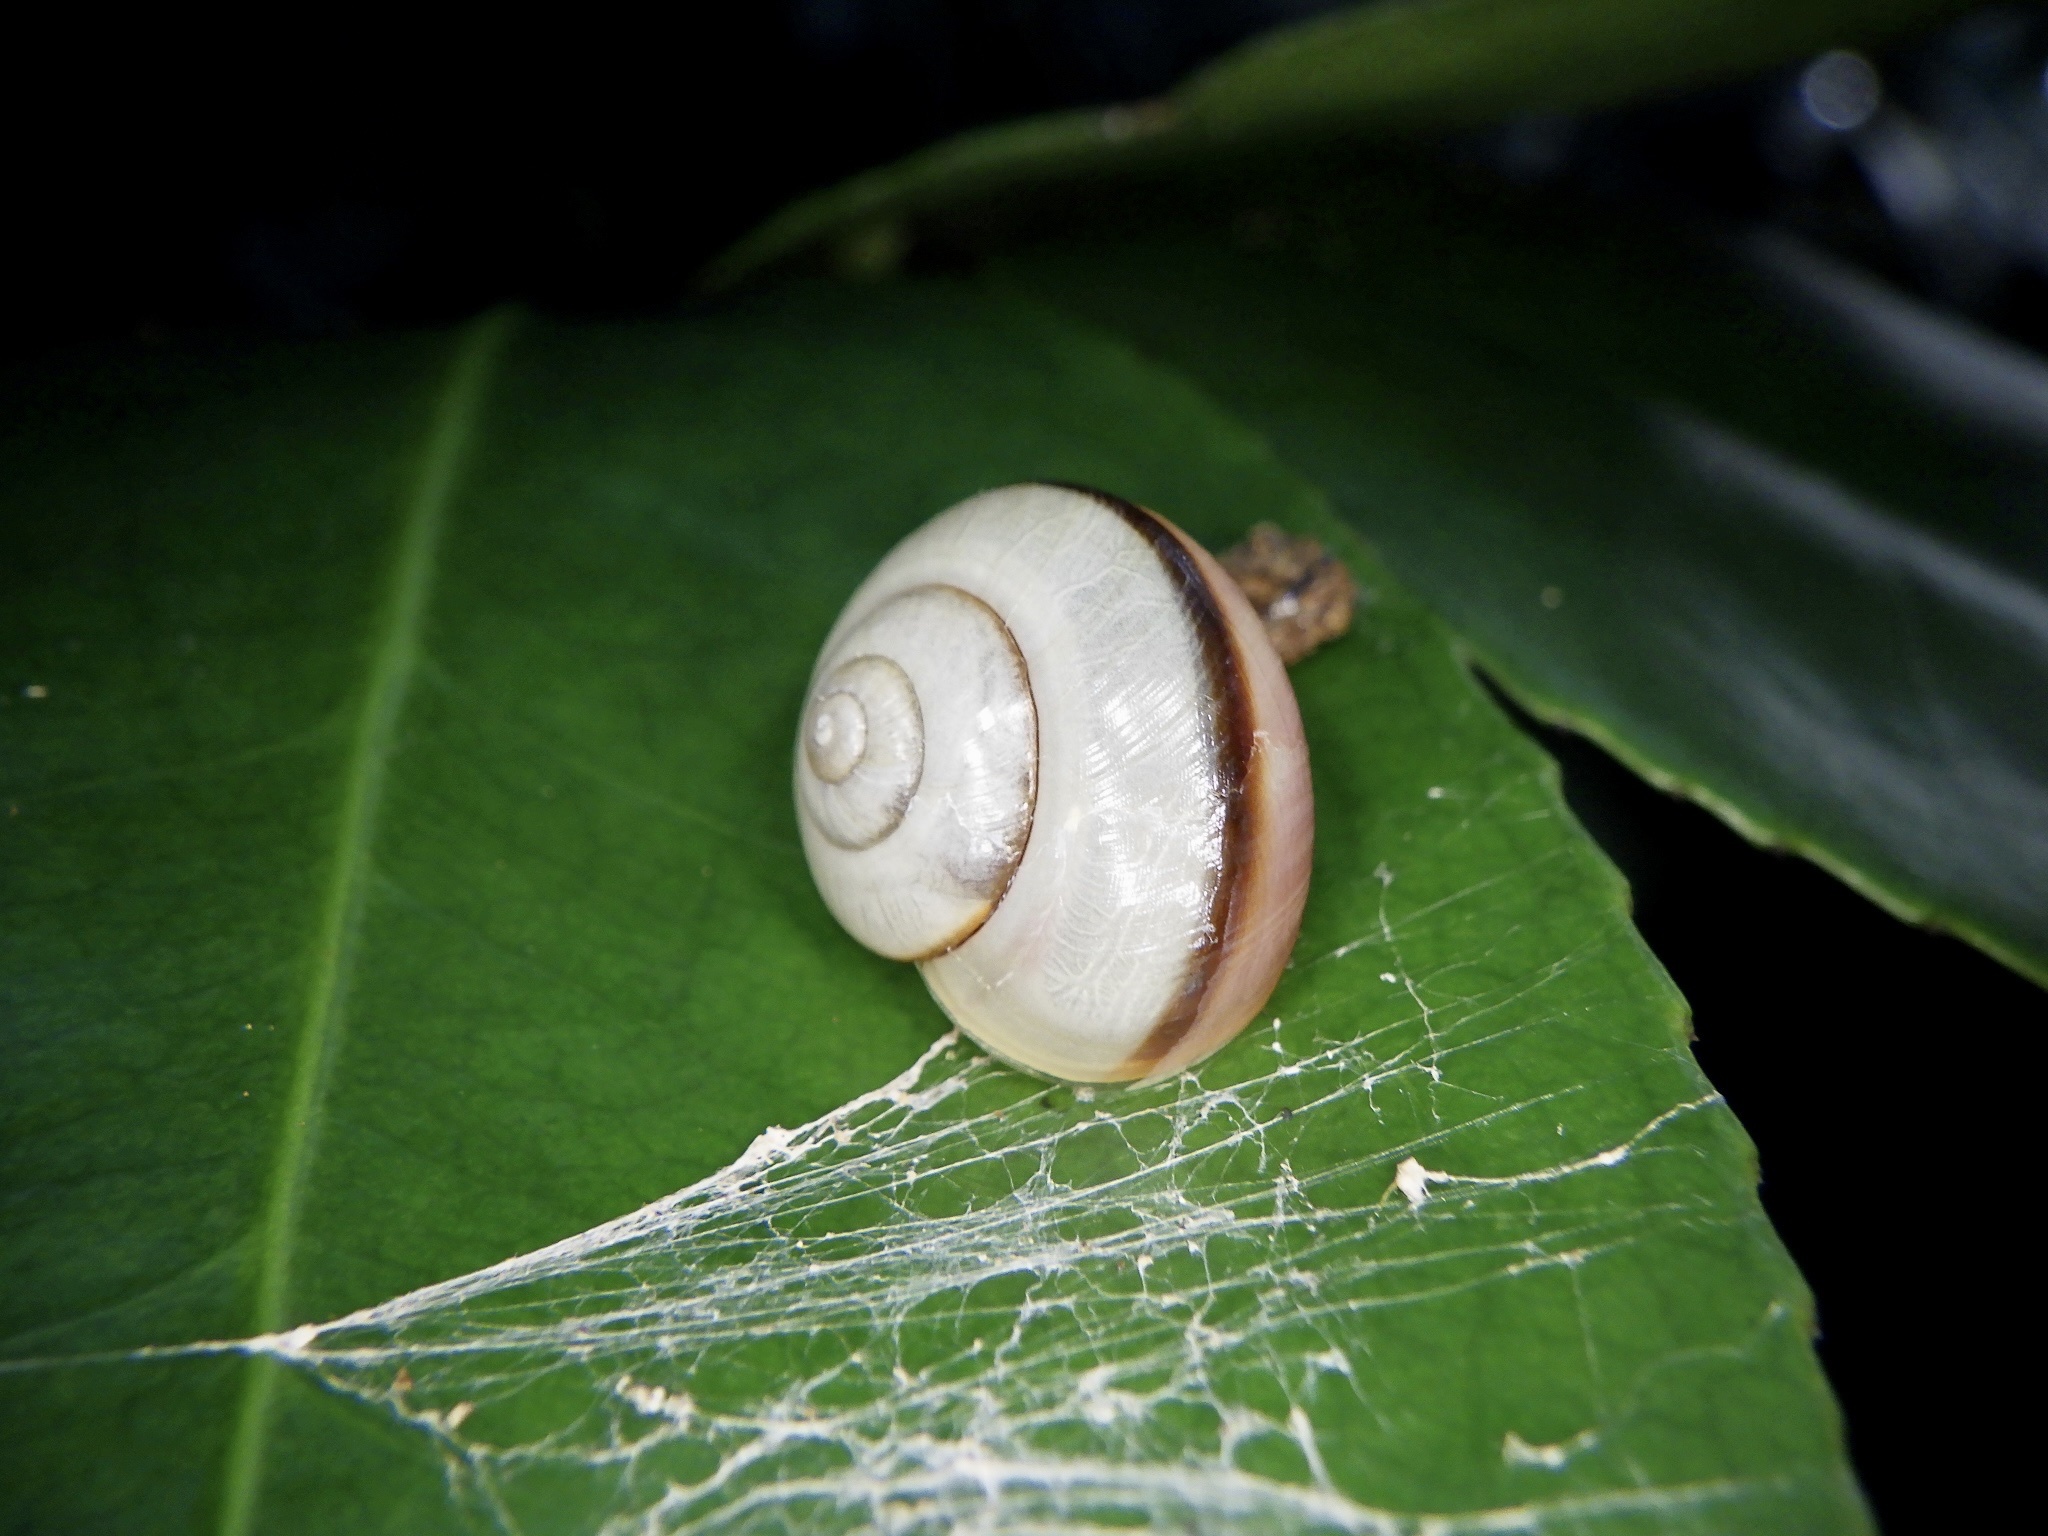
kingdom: Animalia
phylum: Mollusca
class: Gastropoda
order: Stylommatophora
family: Camaenidae
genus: Euhadra
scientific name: Euhadra amaliae
